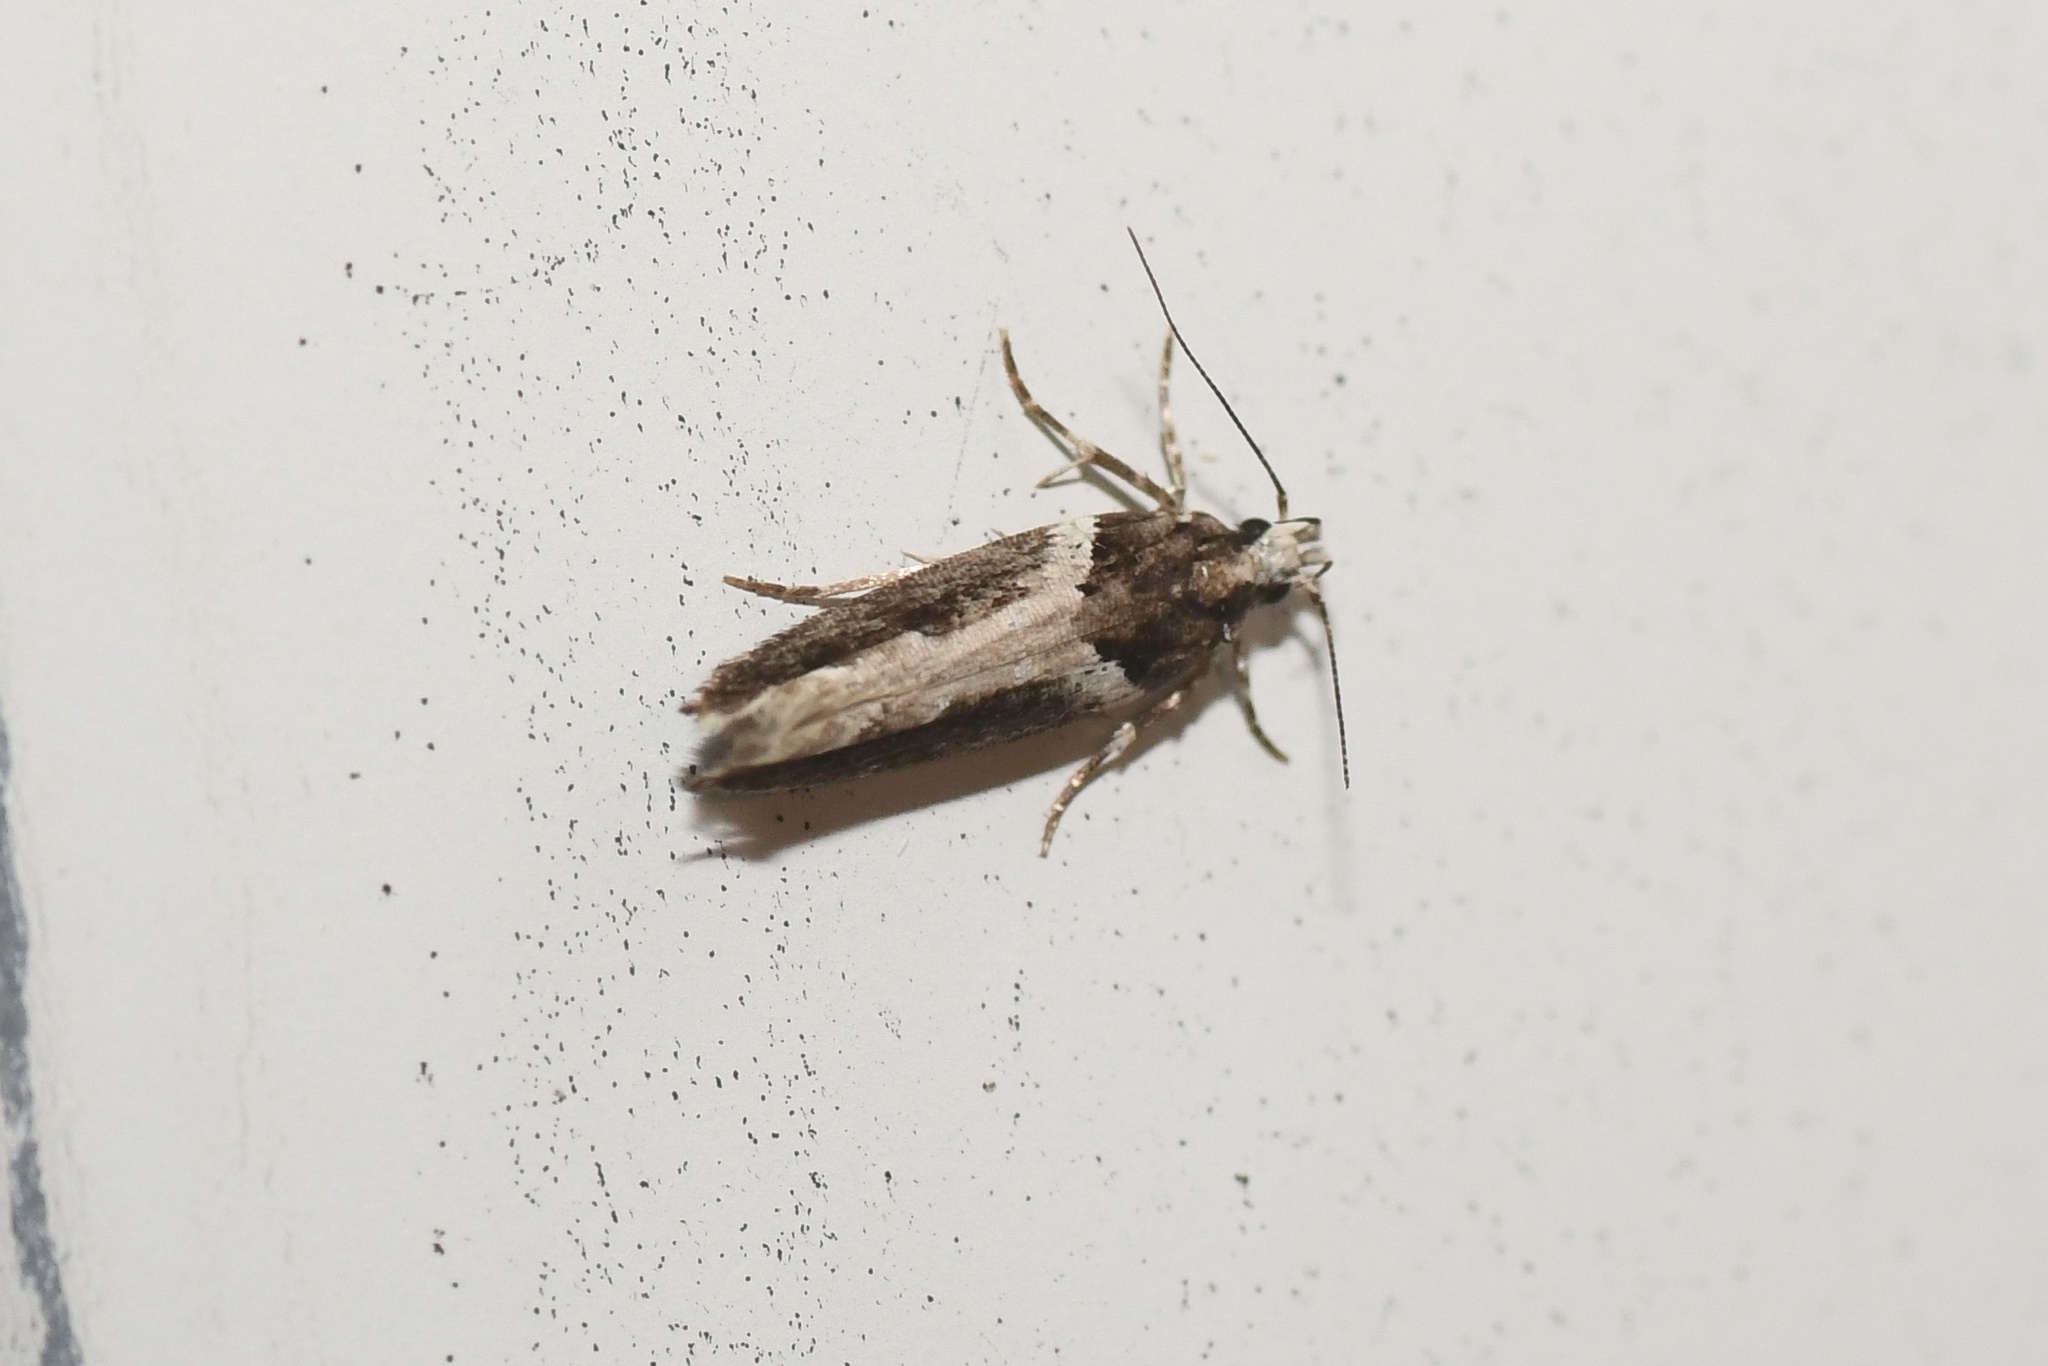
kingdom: Animalia
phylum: Arthropoda
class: Insecta
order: Lepidoptera
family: Gelechiidae
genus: Telphusa
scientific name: Telphusa longifasciella
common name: Y-backed telphusa
